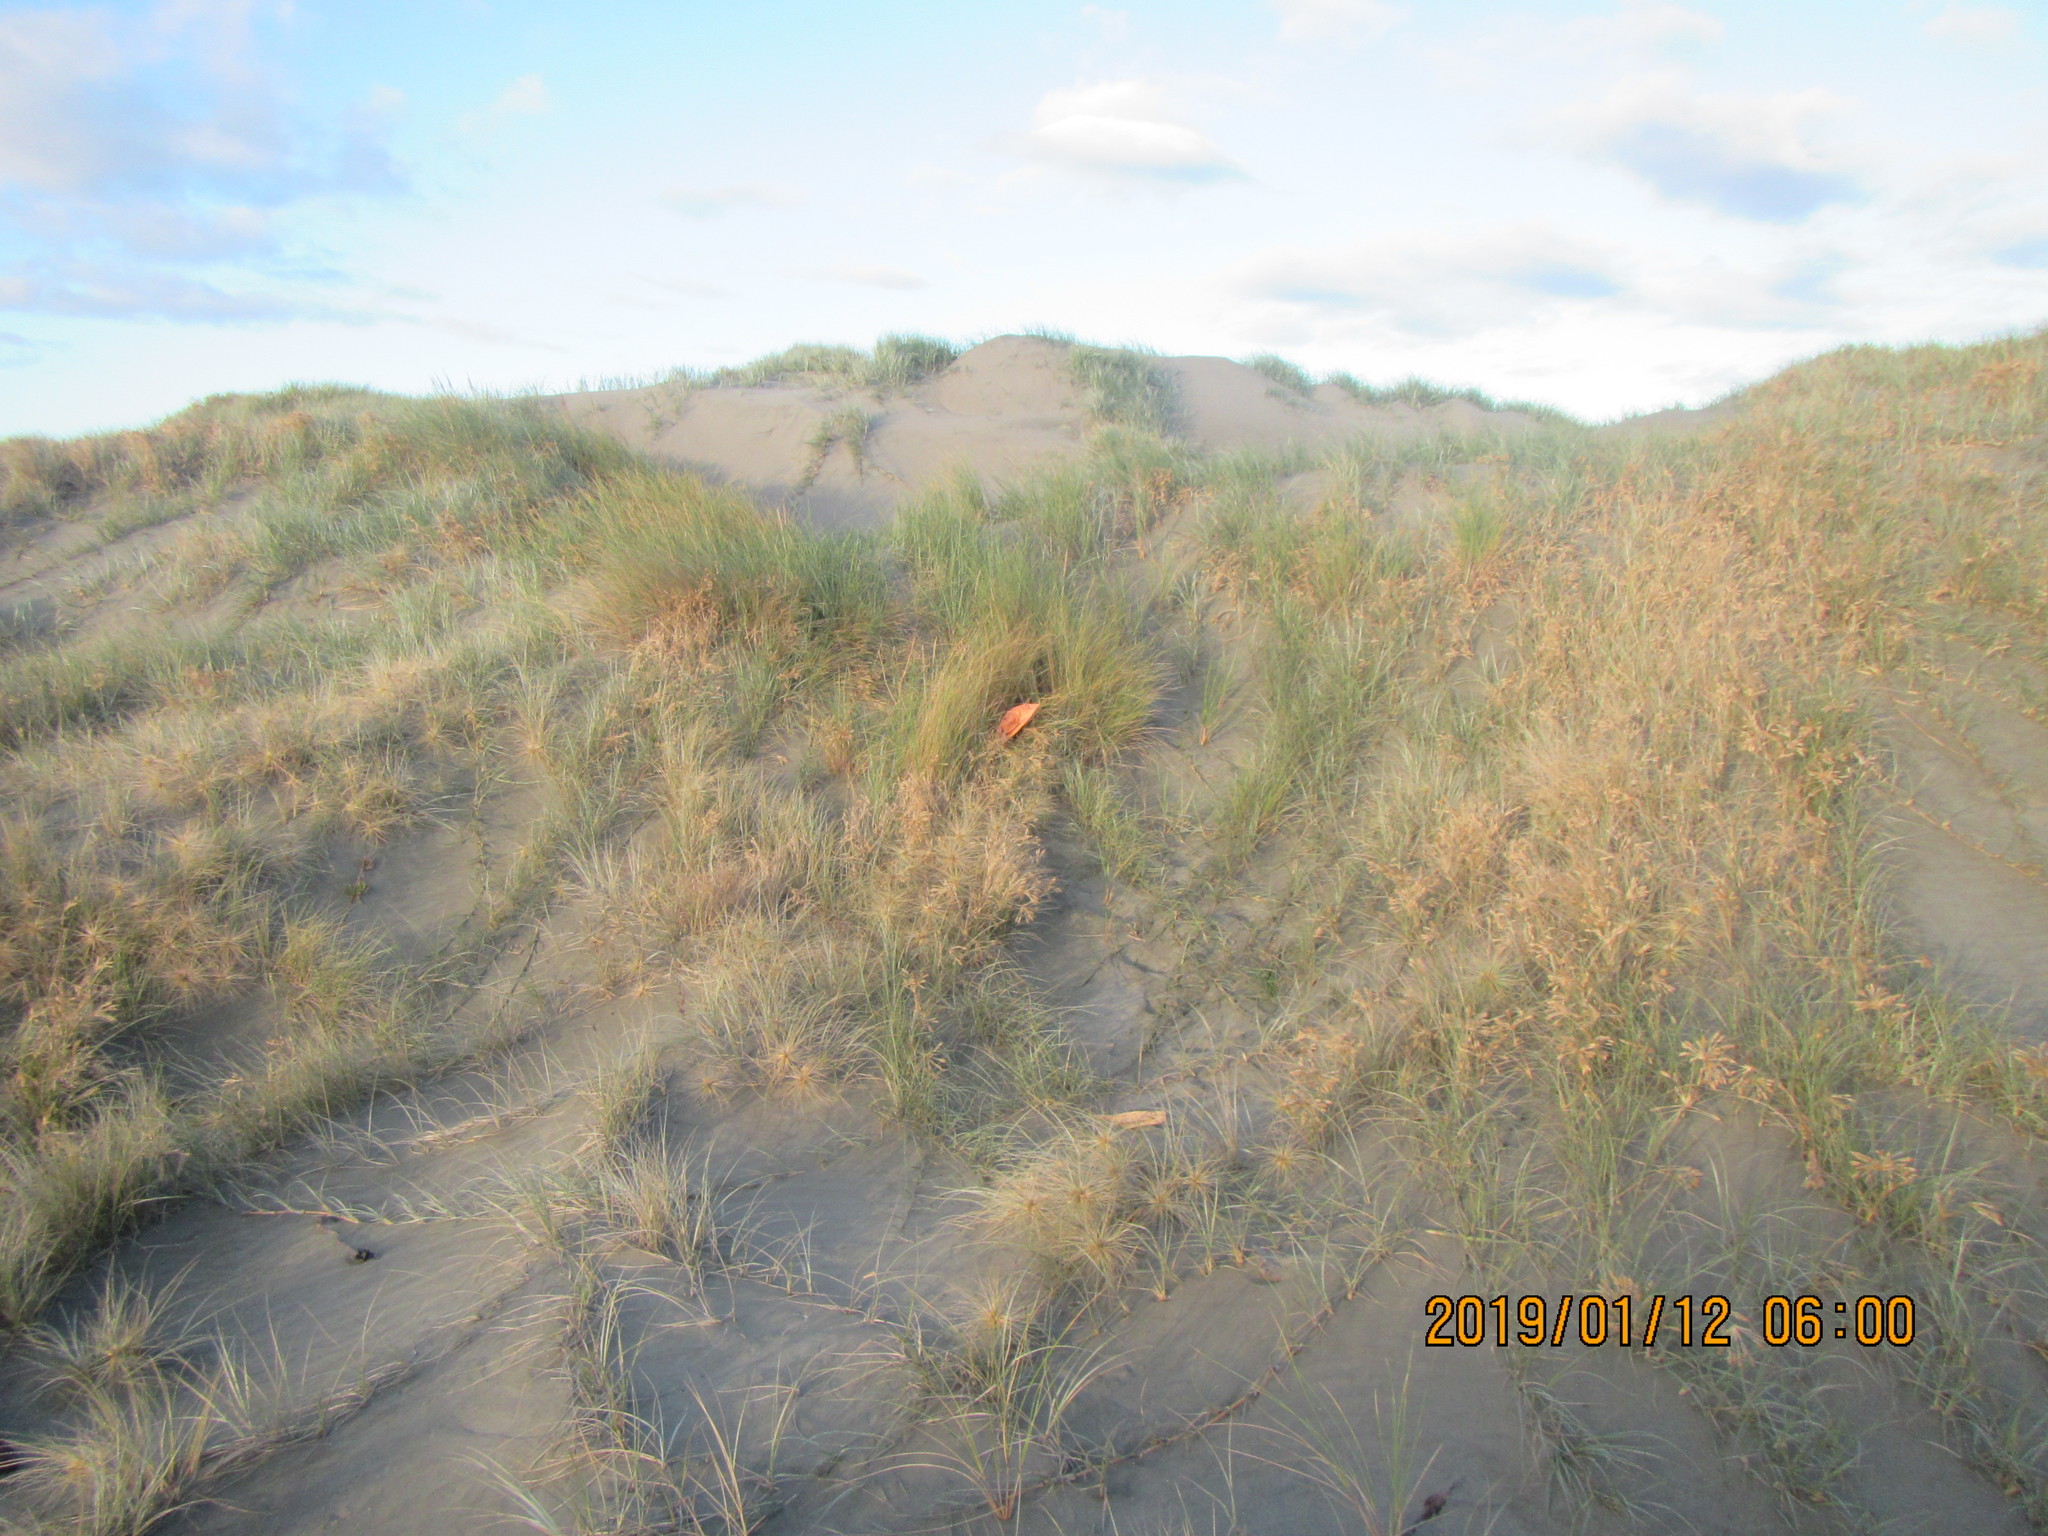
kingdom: Plantae
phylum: Tracheophyta
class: Liliopsida
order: Poales
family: Poaceae
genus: Calamagrostis
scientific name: Calamagrostis arenaria
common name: European beachgrass
